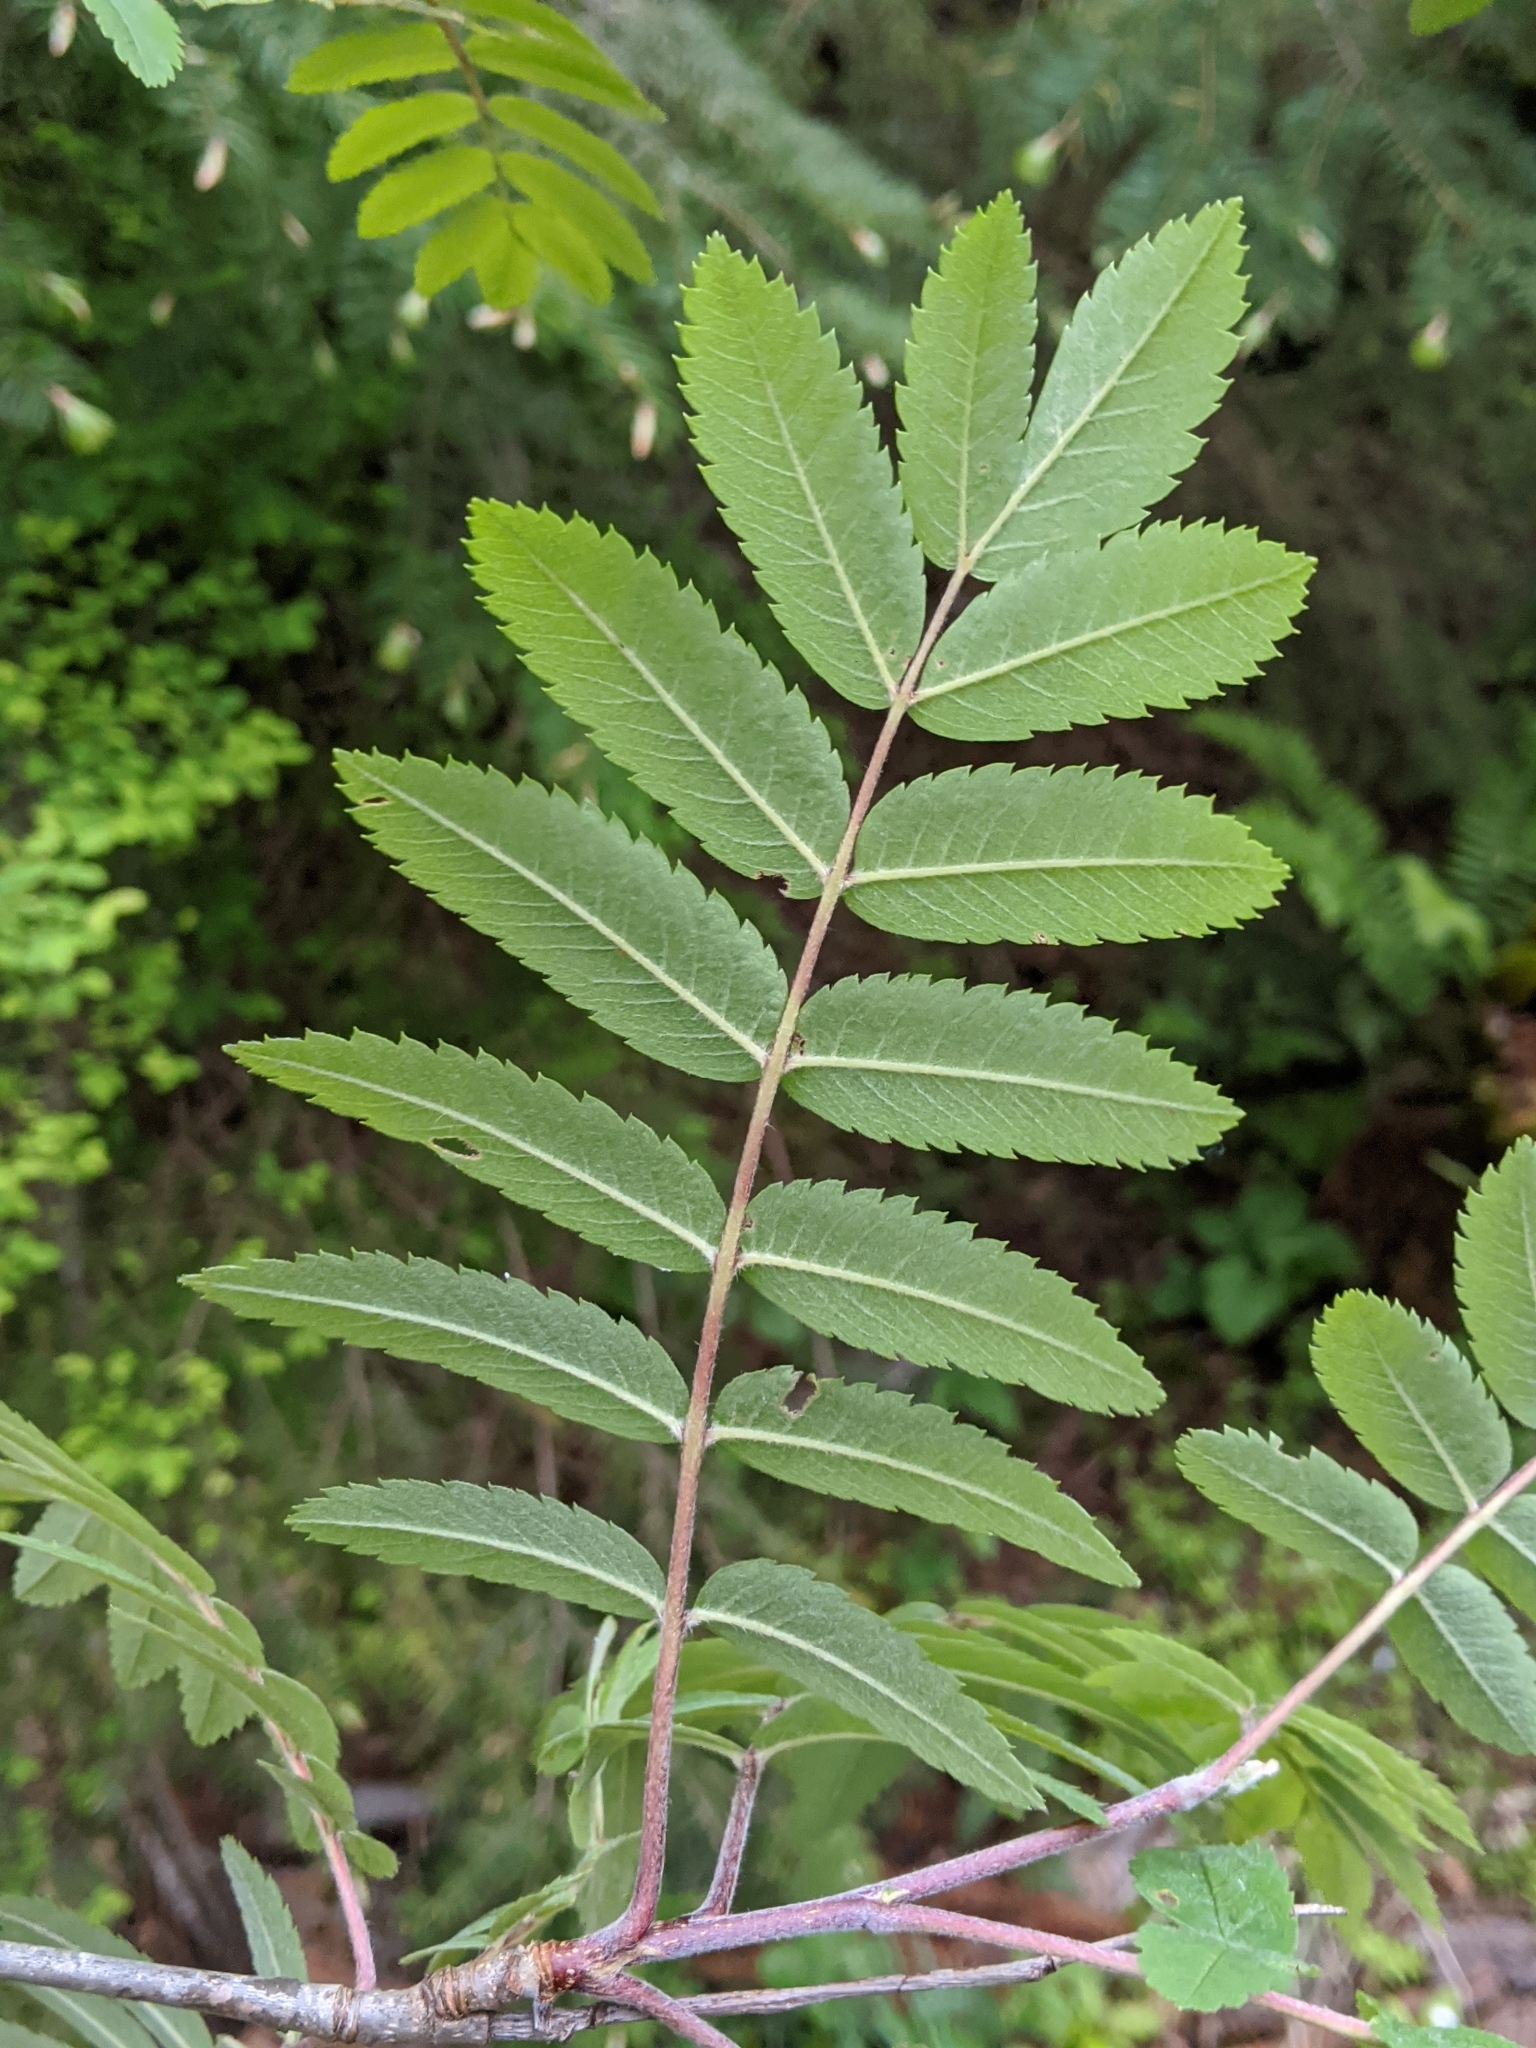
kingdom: Plantae
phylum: Tracheophyta
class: Magnoliopsida
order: Rosales
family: Rosaceae
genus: Sorbus
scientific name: Sorbus aucuparia
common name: Rowan
